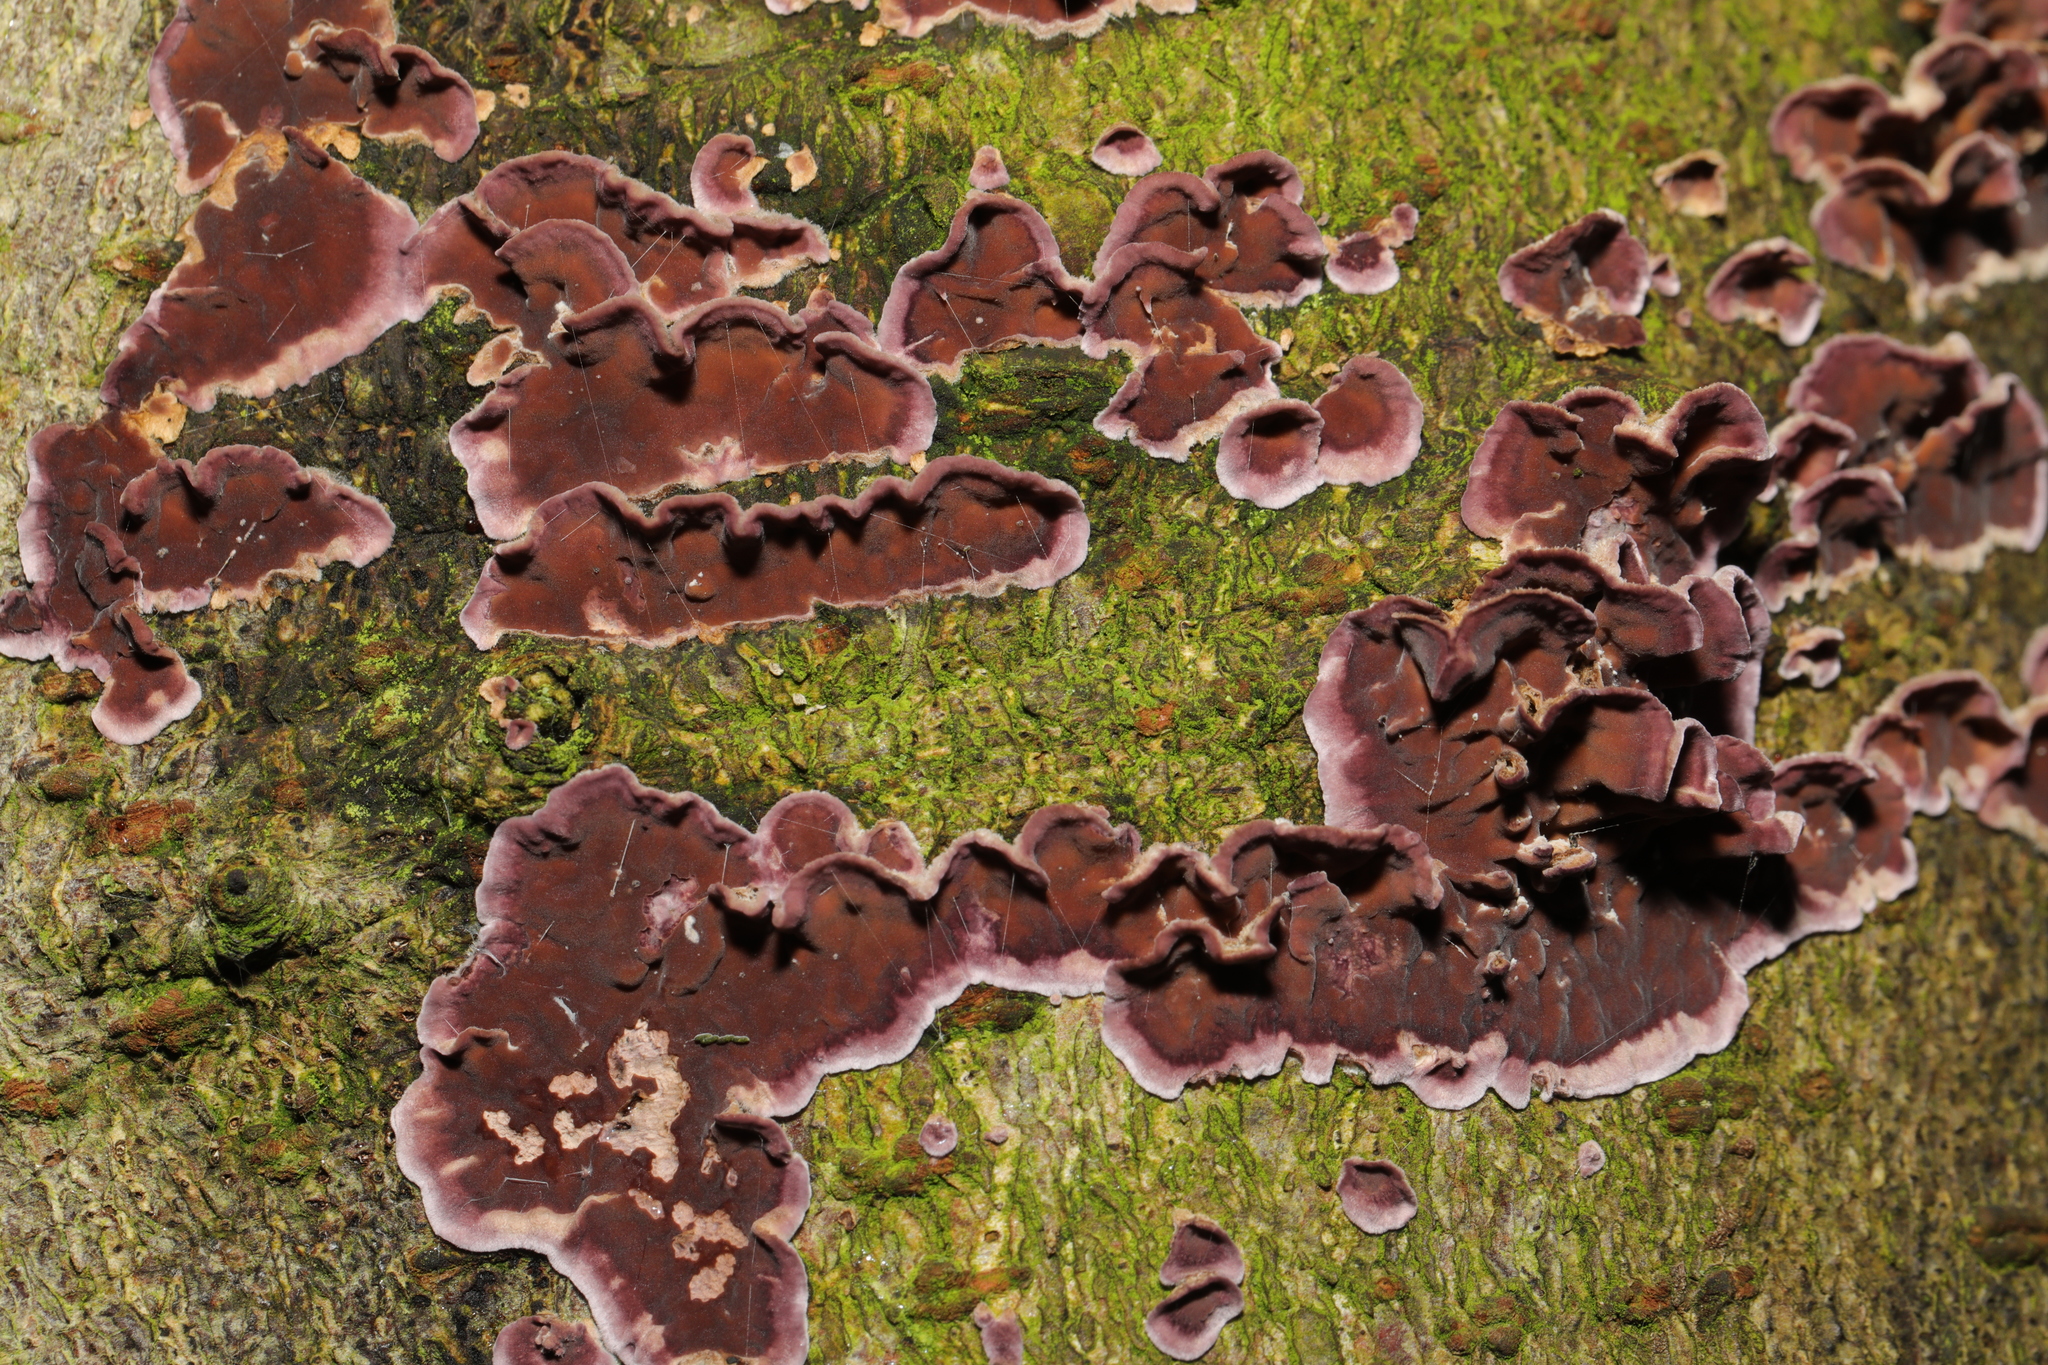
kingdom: Fungi
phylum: Basidiomycota
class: Agaricomycetes
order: Agaricales
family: Cyphellaceae
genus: Chondrostereum
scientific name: Chondrostereum purpureum
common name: Silver leaf disease
